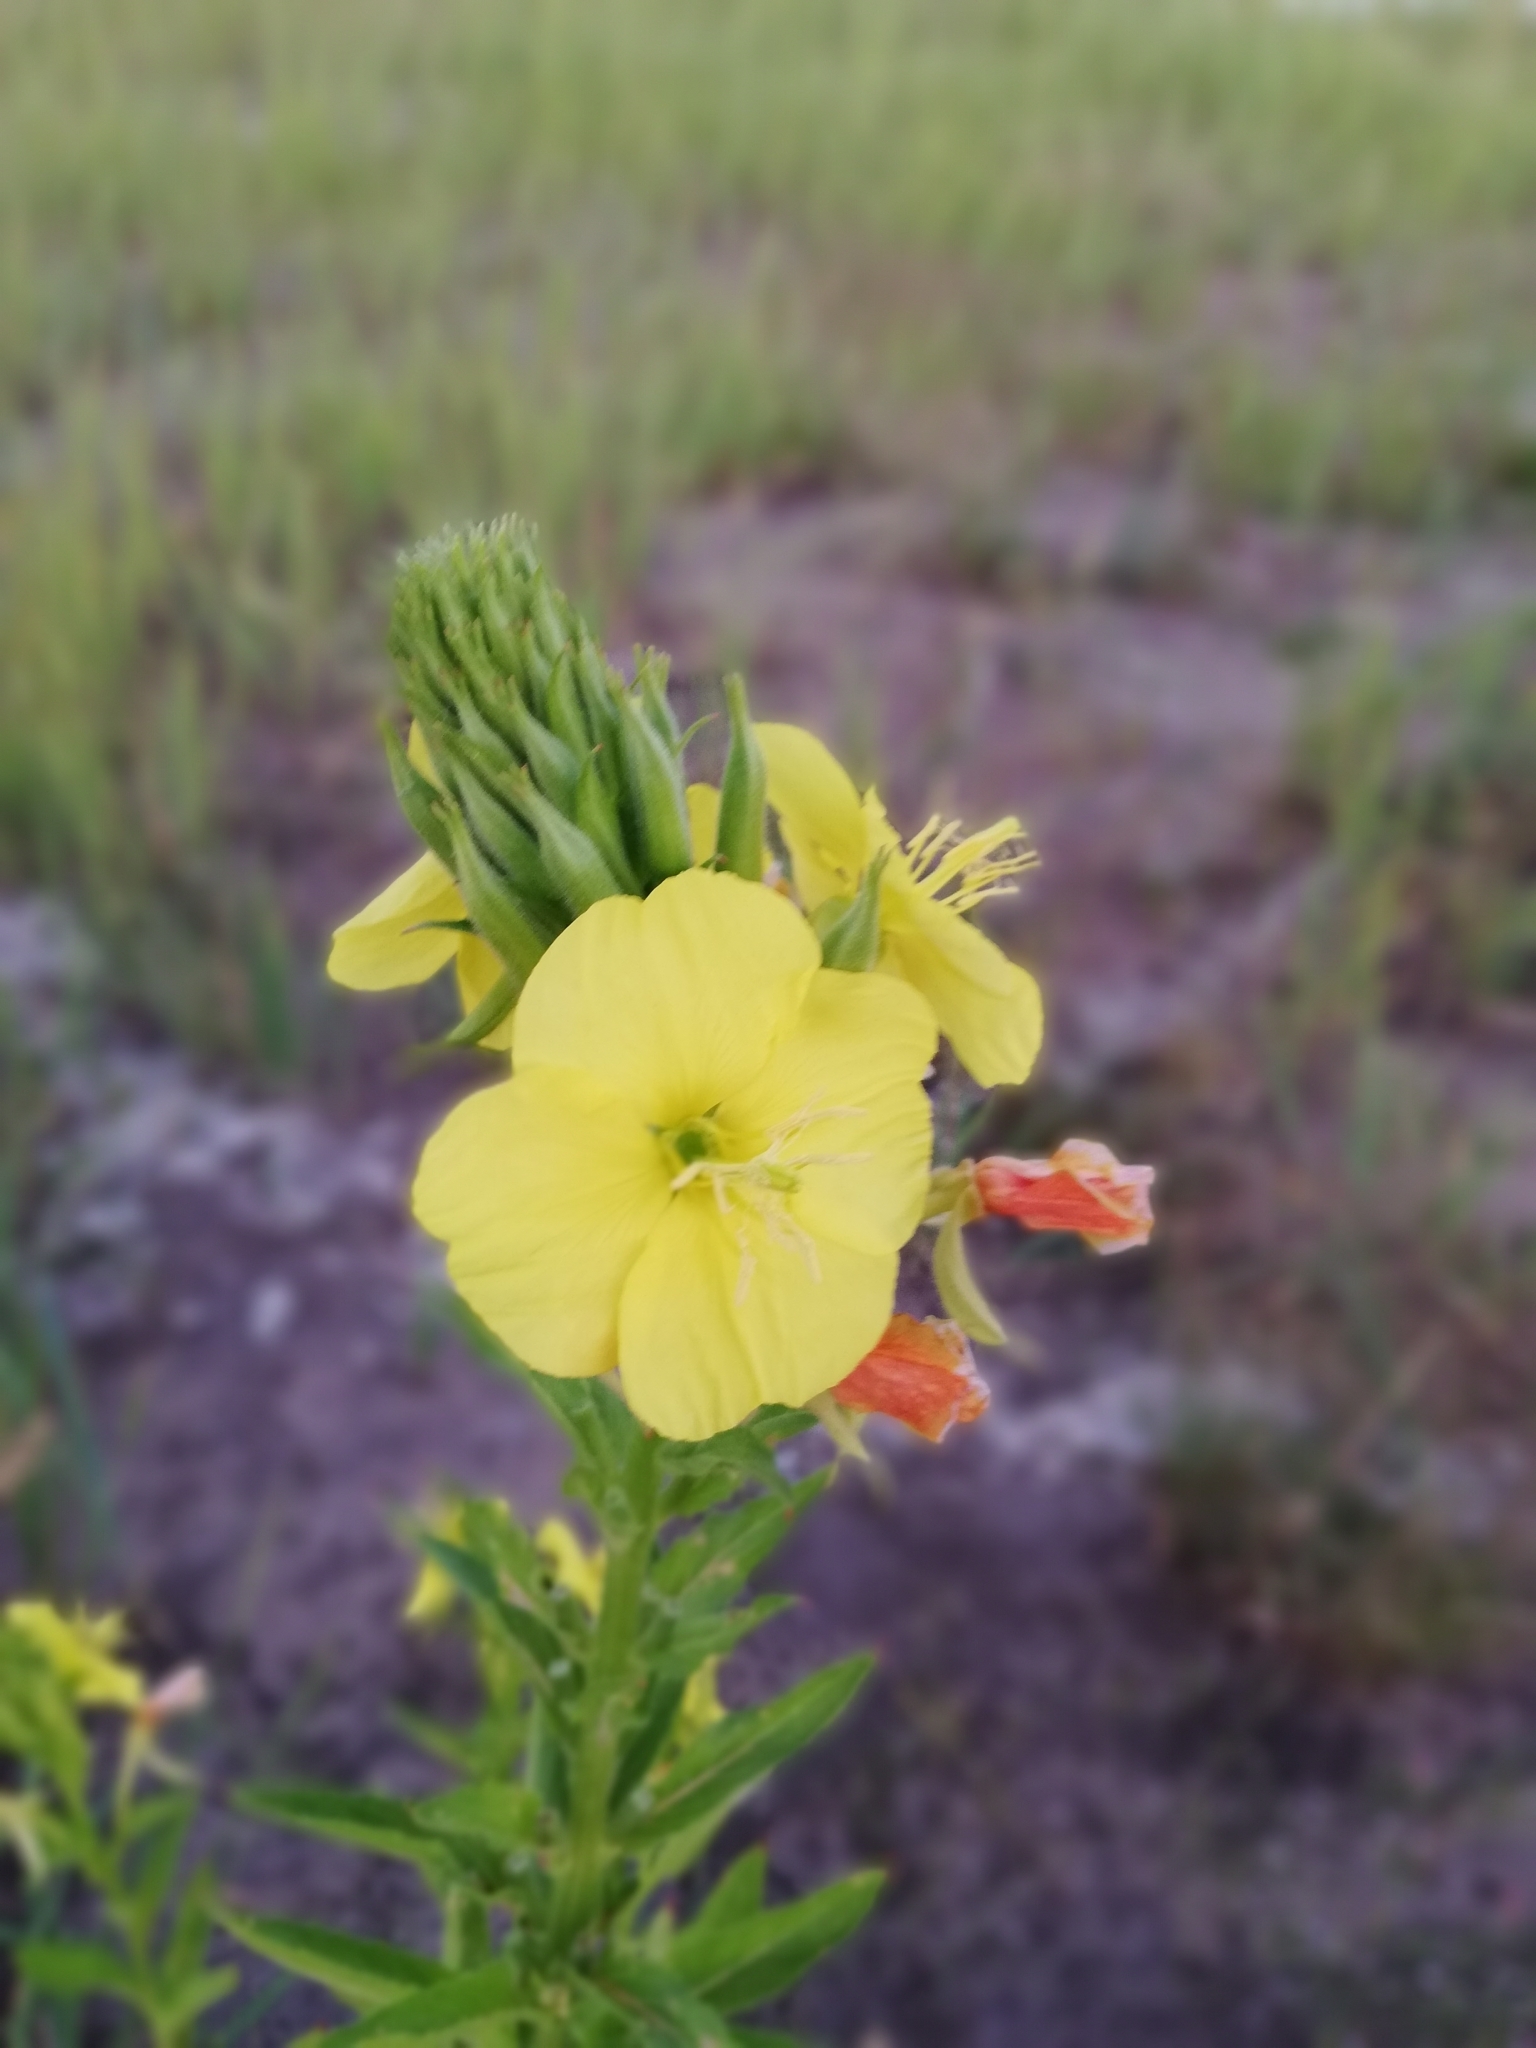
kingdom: Plantae
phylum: Tracheophyta
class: Magnoliopsida
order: Myrtales
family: Onagraceae
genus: Oenothera
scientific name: Oenothera biennis
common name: Common evening-primrose
